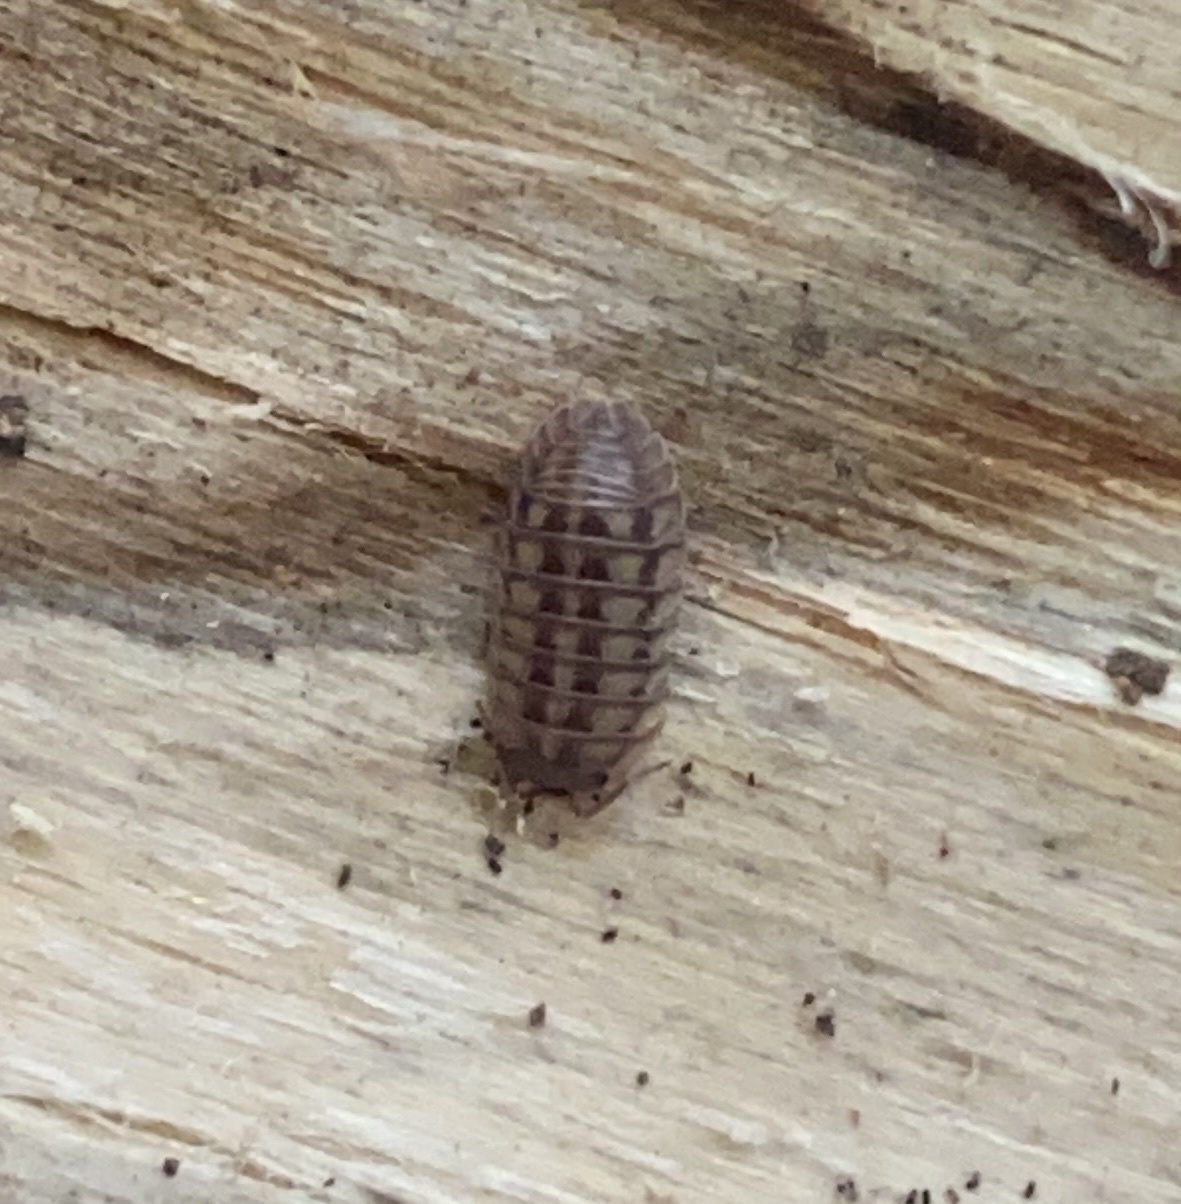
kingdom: Animalia
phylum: Arthropoda
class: Malacostraca
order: Isopoda
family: Armadillidiidae
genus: Armadillidium
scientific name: Armadillidium nasatum
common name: Isopod
